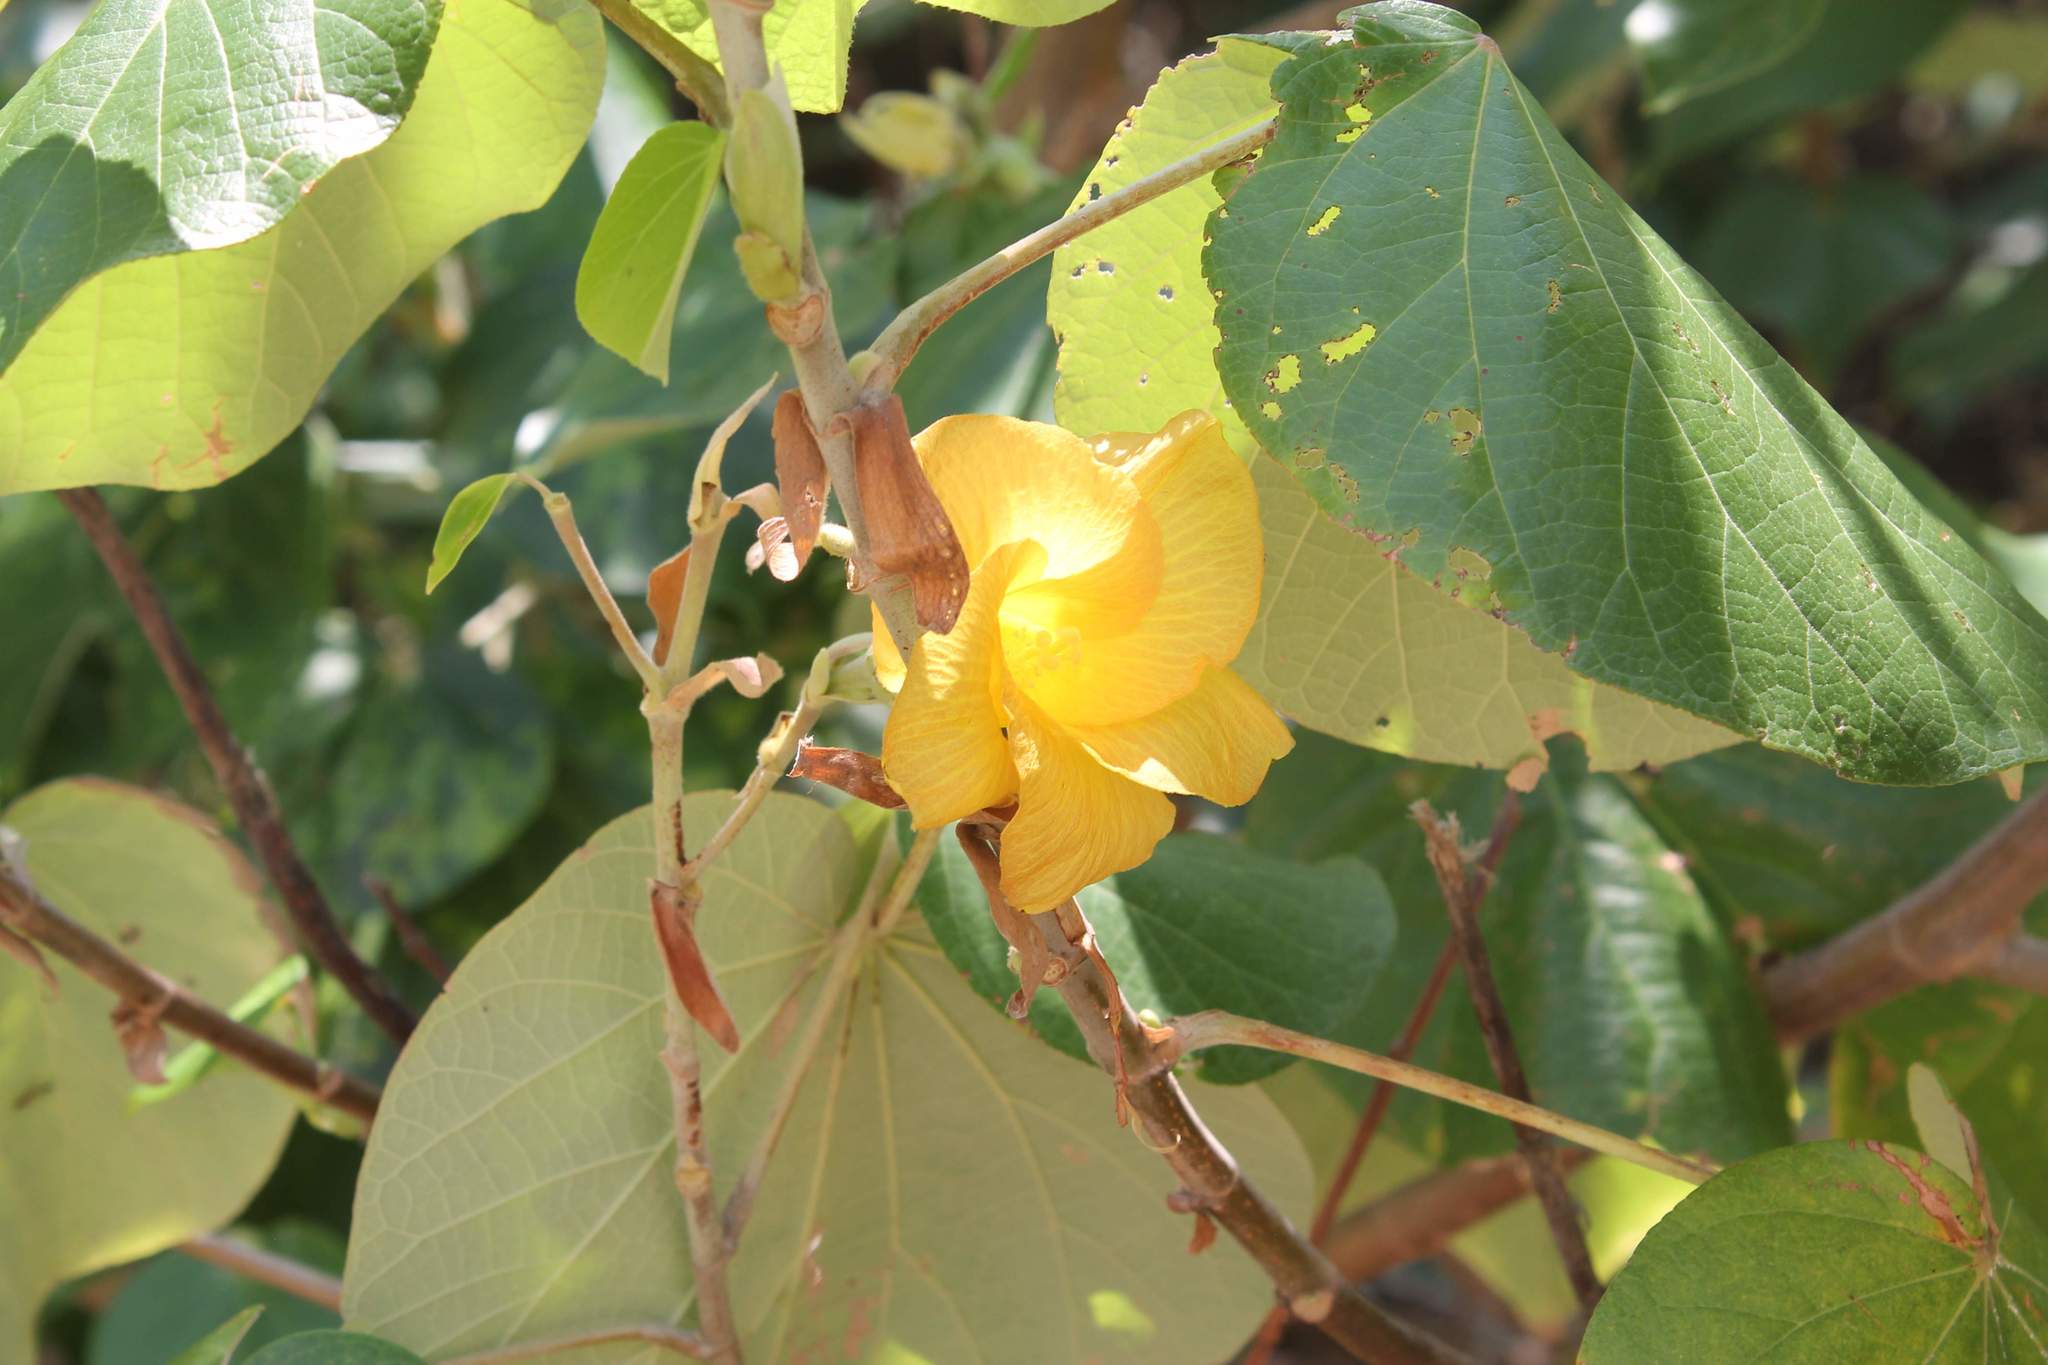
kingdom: Plantae
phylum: Tracheophyta
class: Magnoliopsida
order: Malvales
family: Malvaceae
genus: Talipariti
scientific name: Talipariti pernambucense
